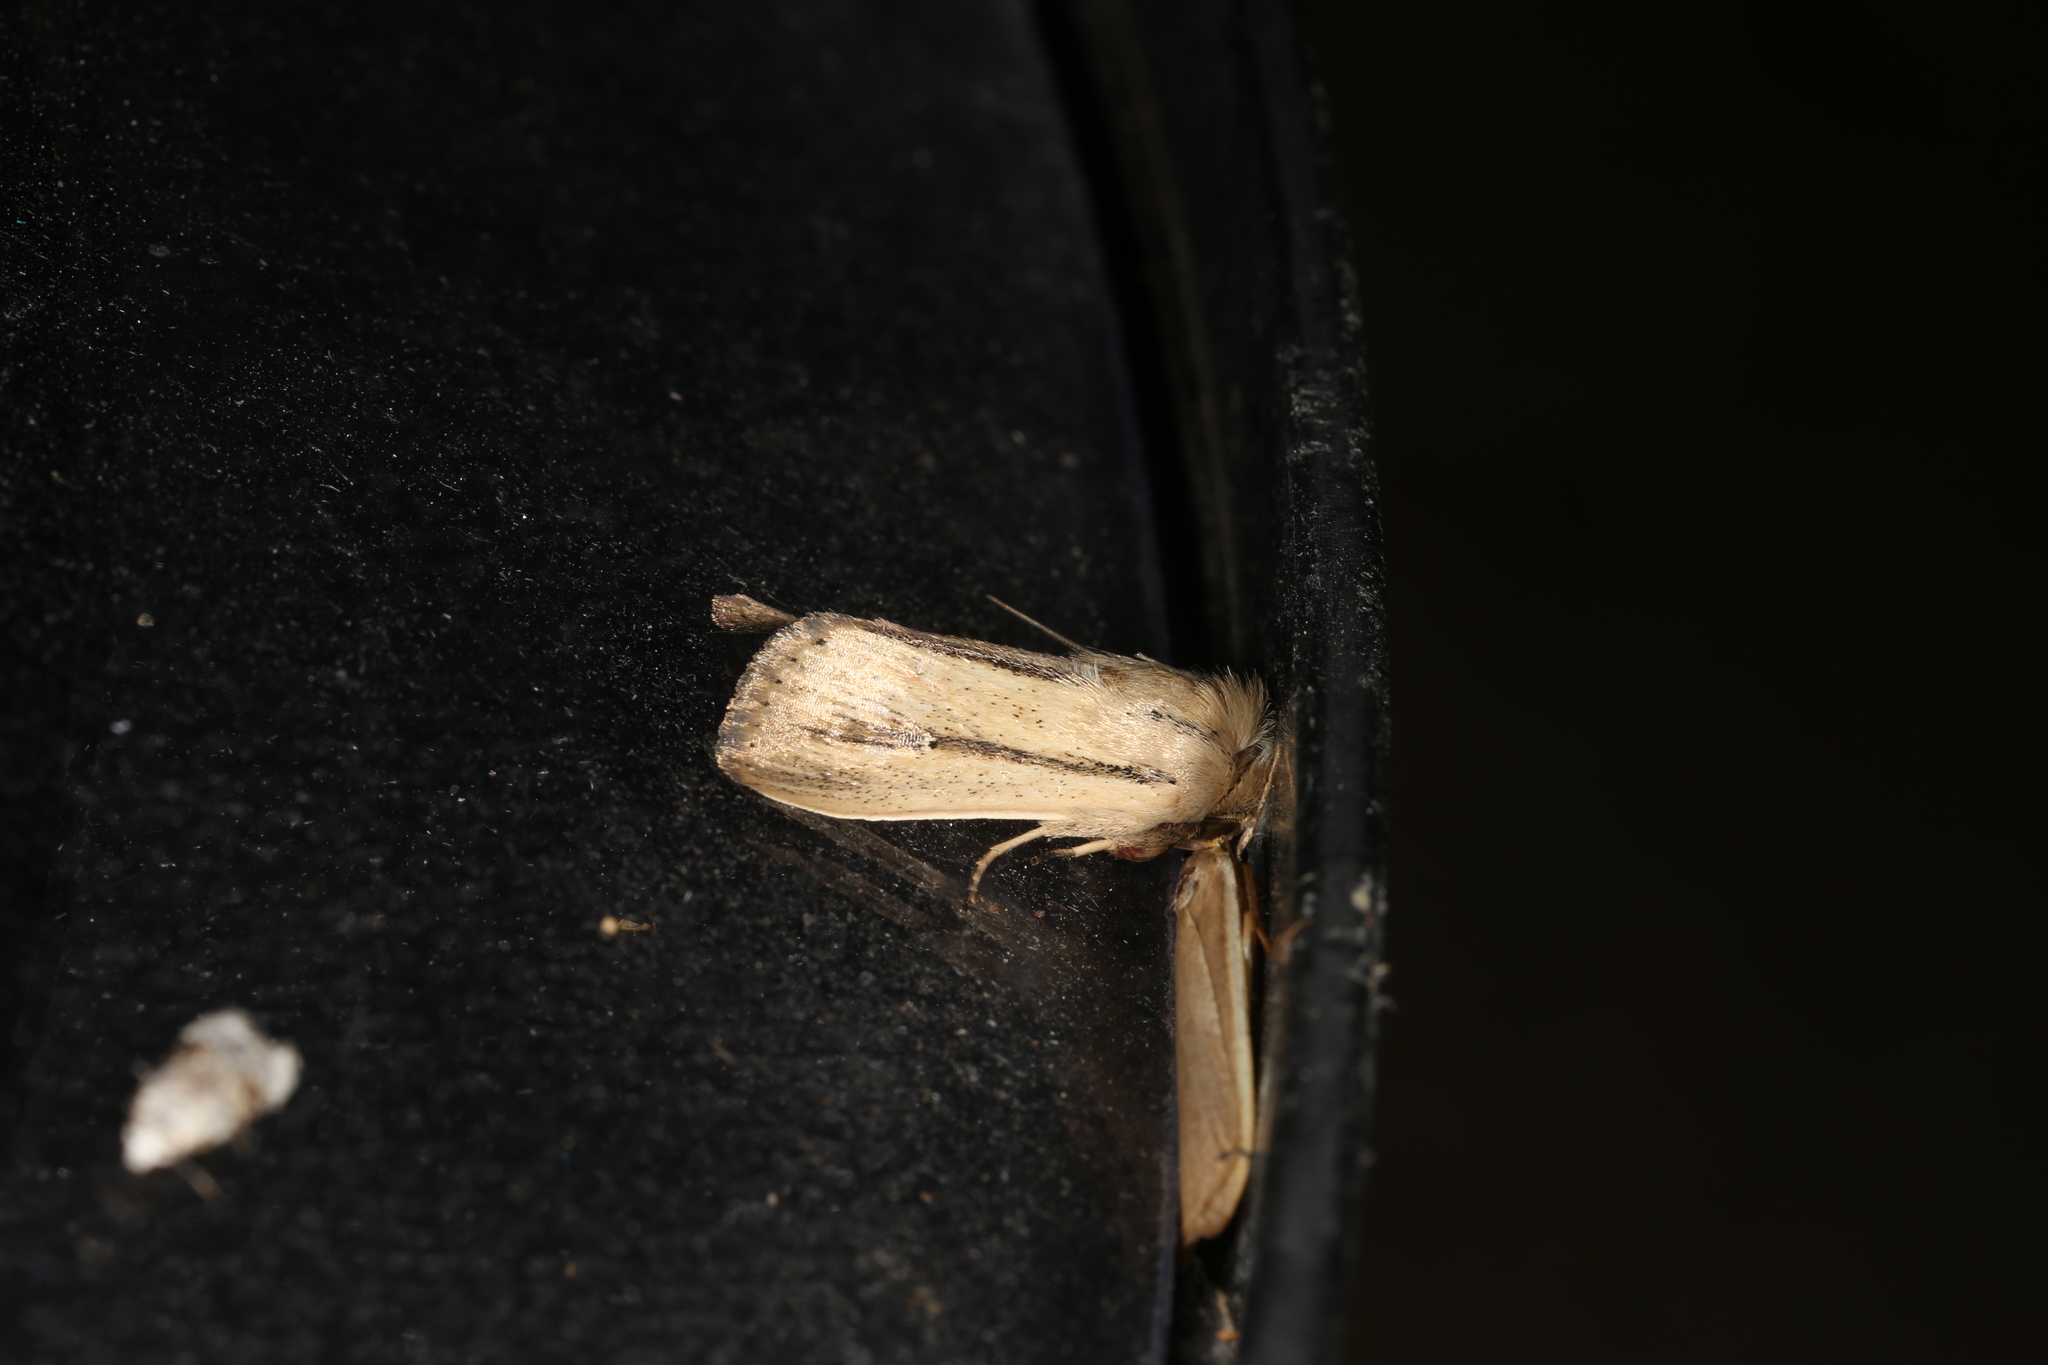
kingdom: Animalia
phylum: Arthropoda
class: Insecta
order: Lepidoptera
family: Noctuidae
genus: Leucania
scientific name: Leucania diatrecta
